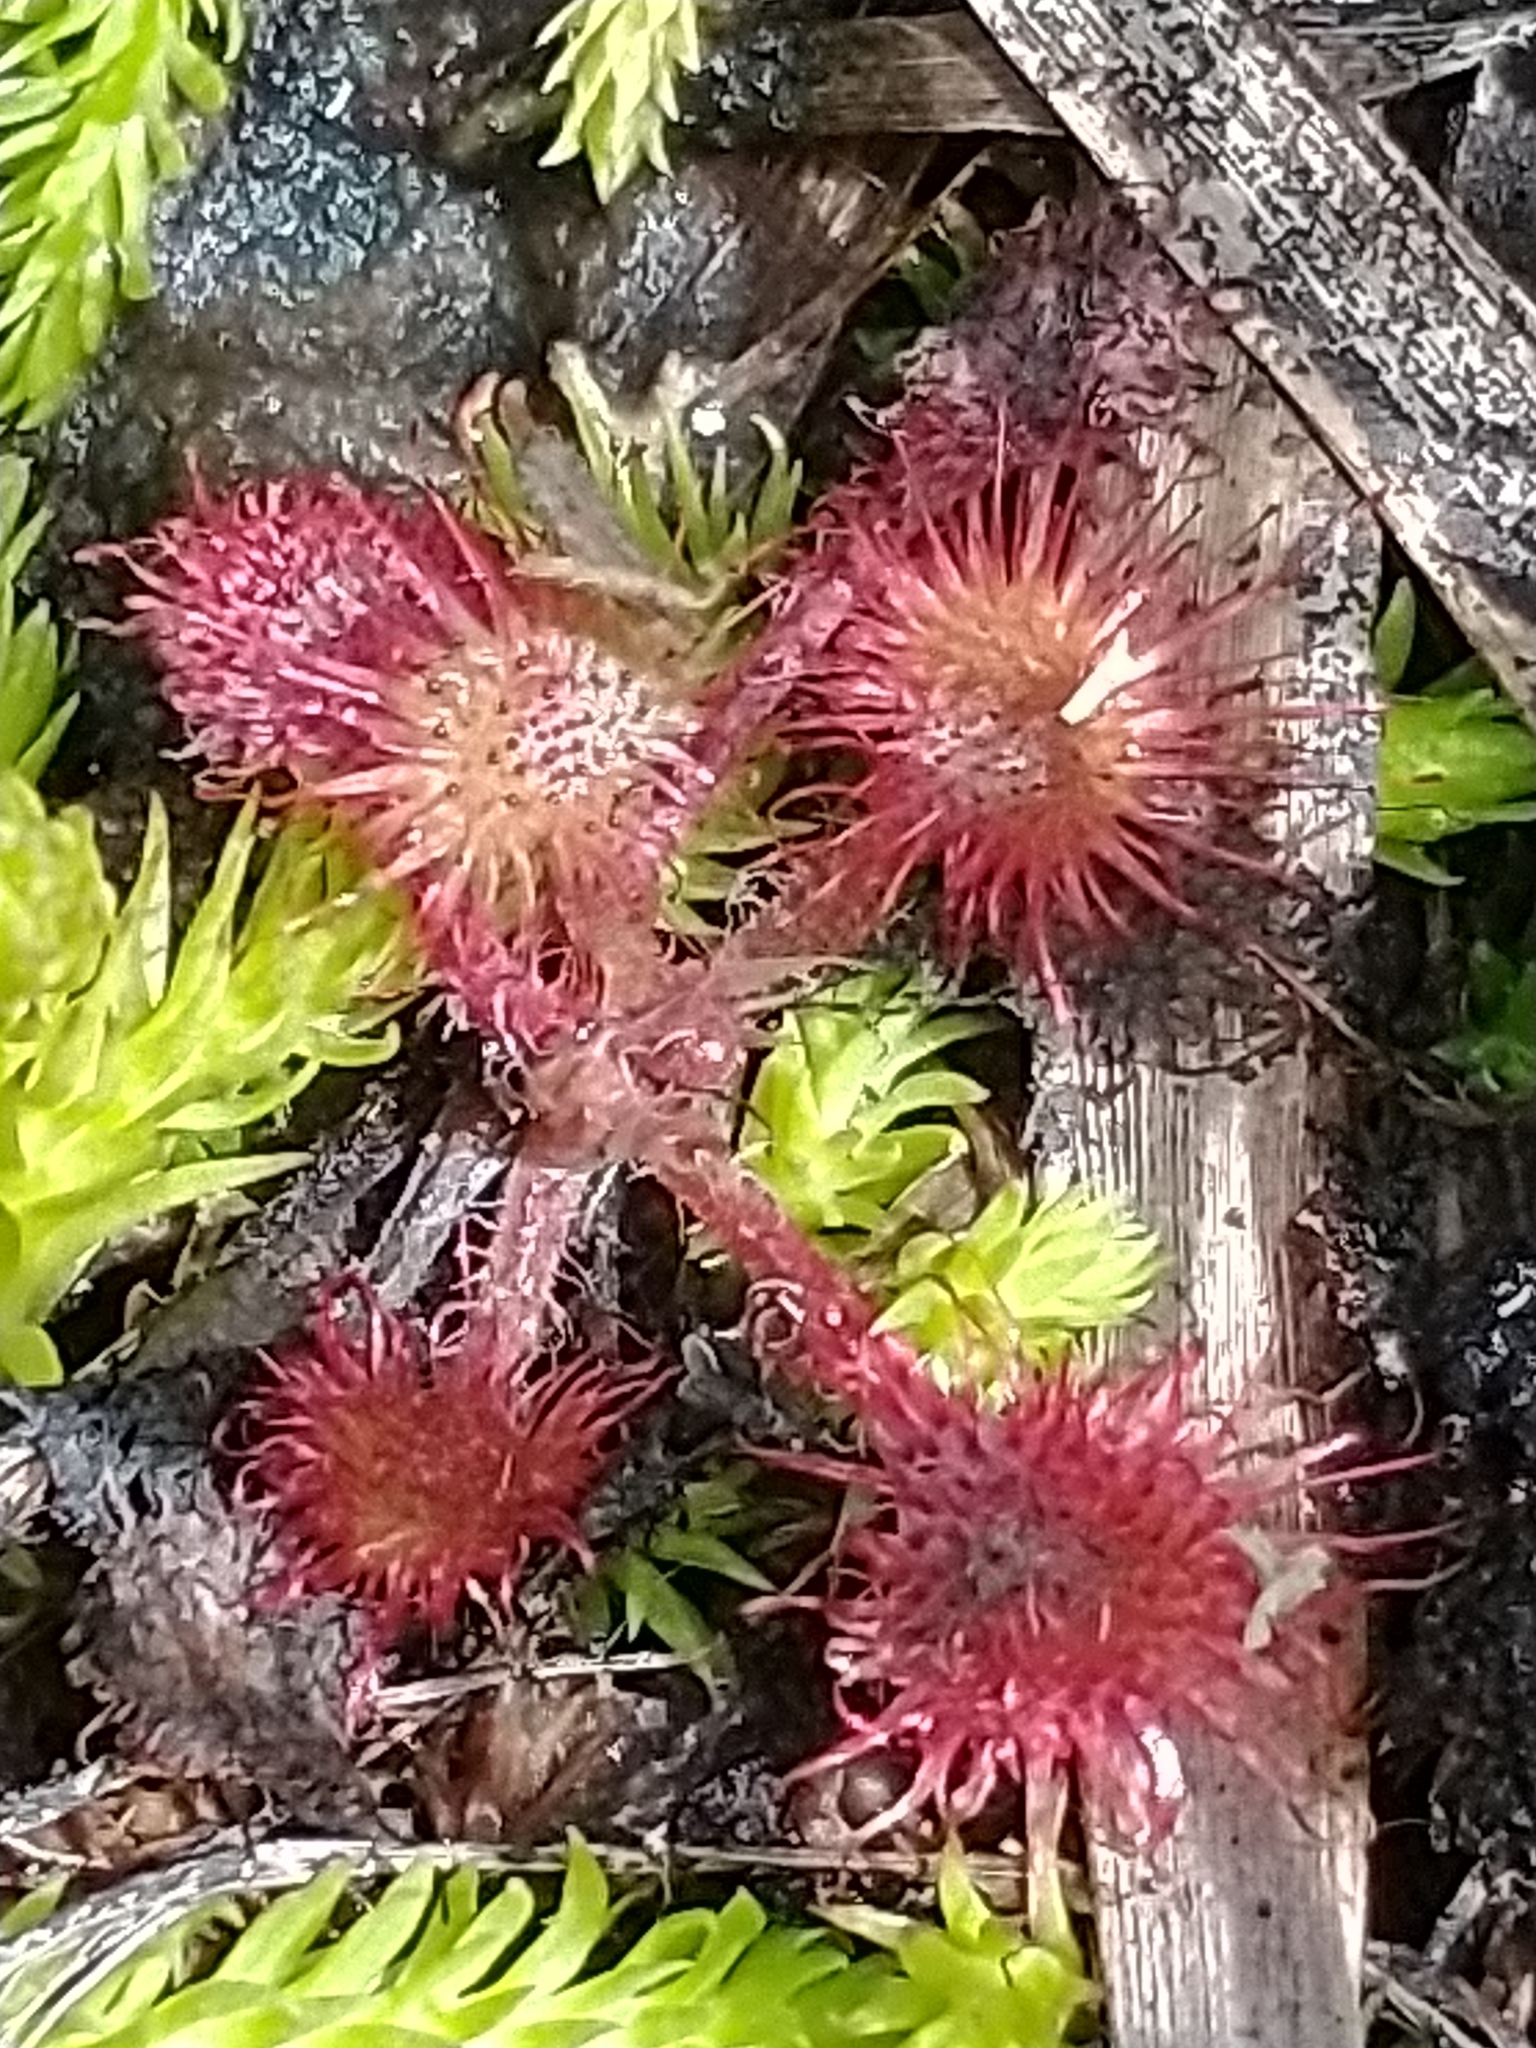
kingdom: Plantae
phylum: Tracheophyta
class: Magnoliopsida
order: Caryophyllales
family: Droseraceae
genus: Drosera
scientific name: Drosera rotundifolia
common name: Round-leaved sundew
